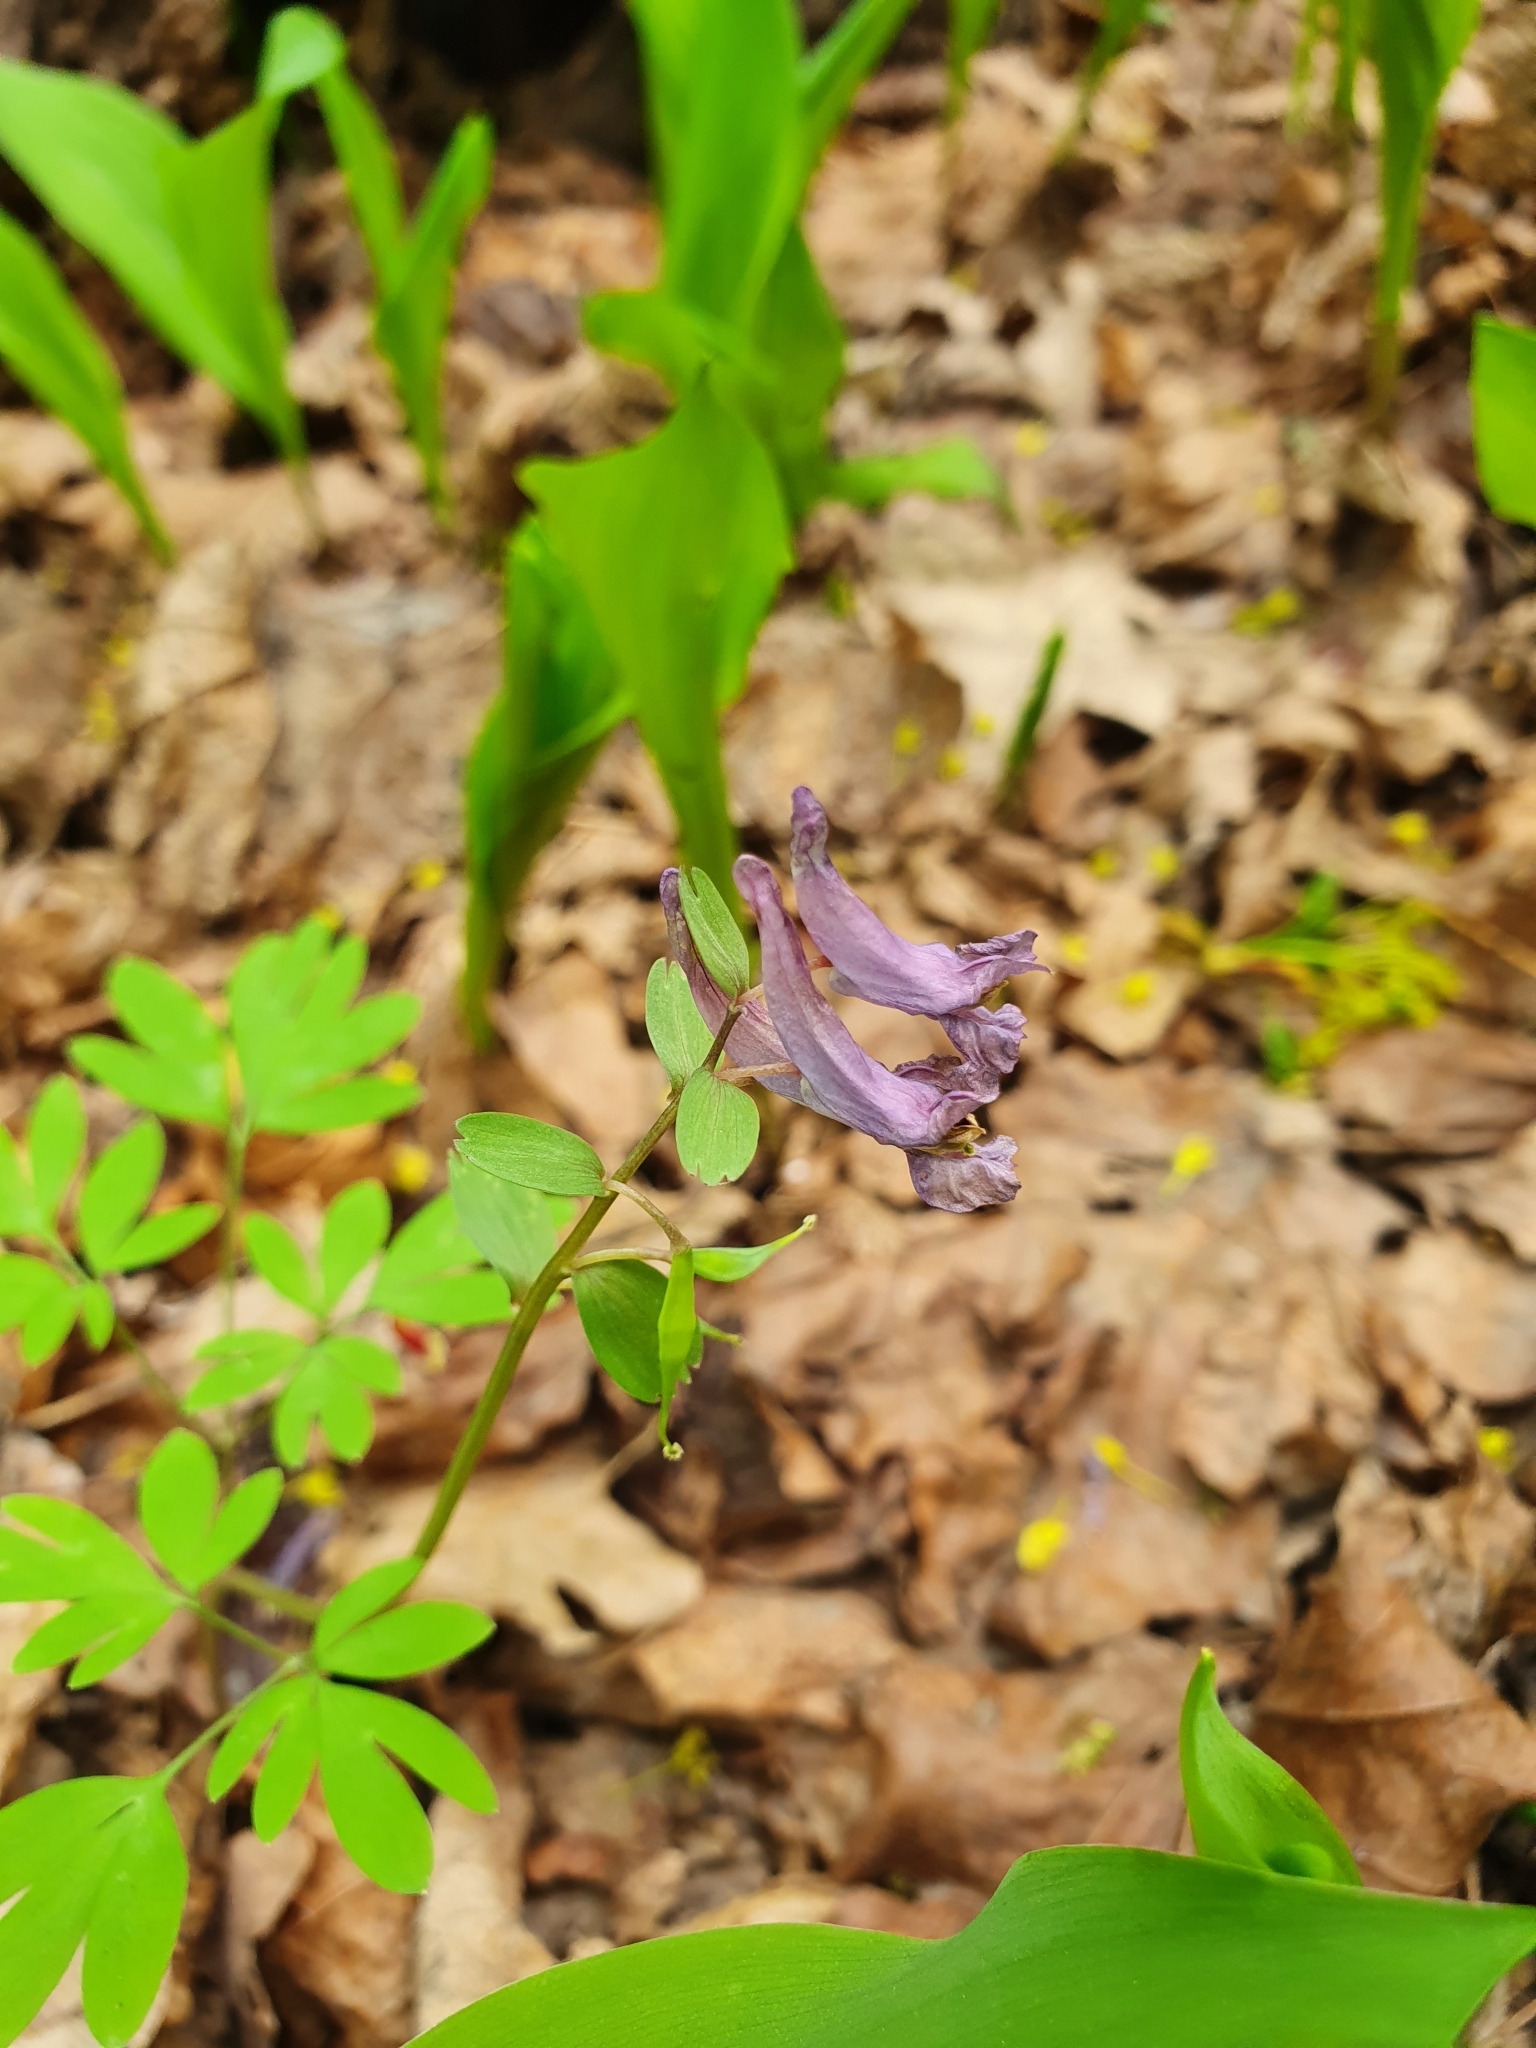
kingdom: Plantae
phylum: Tracheophyta
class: Magnoliopsida
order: Ranunculales
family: Papaveraceae
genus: Corydalis
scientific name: Corydalis solida
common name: Bird-in-a-bush
